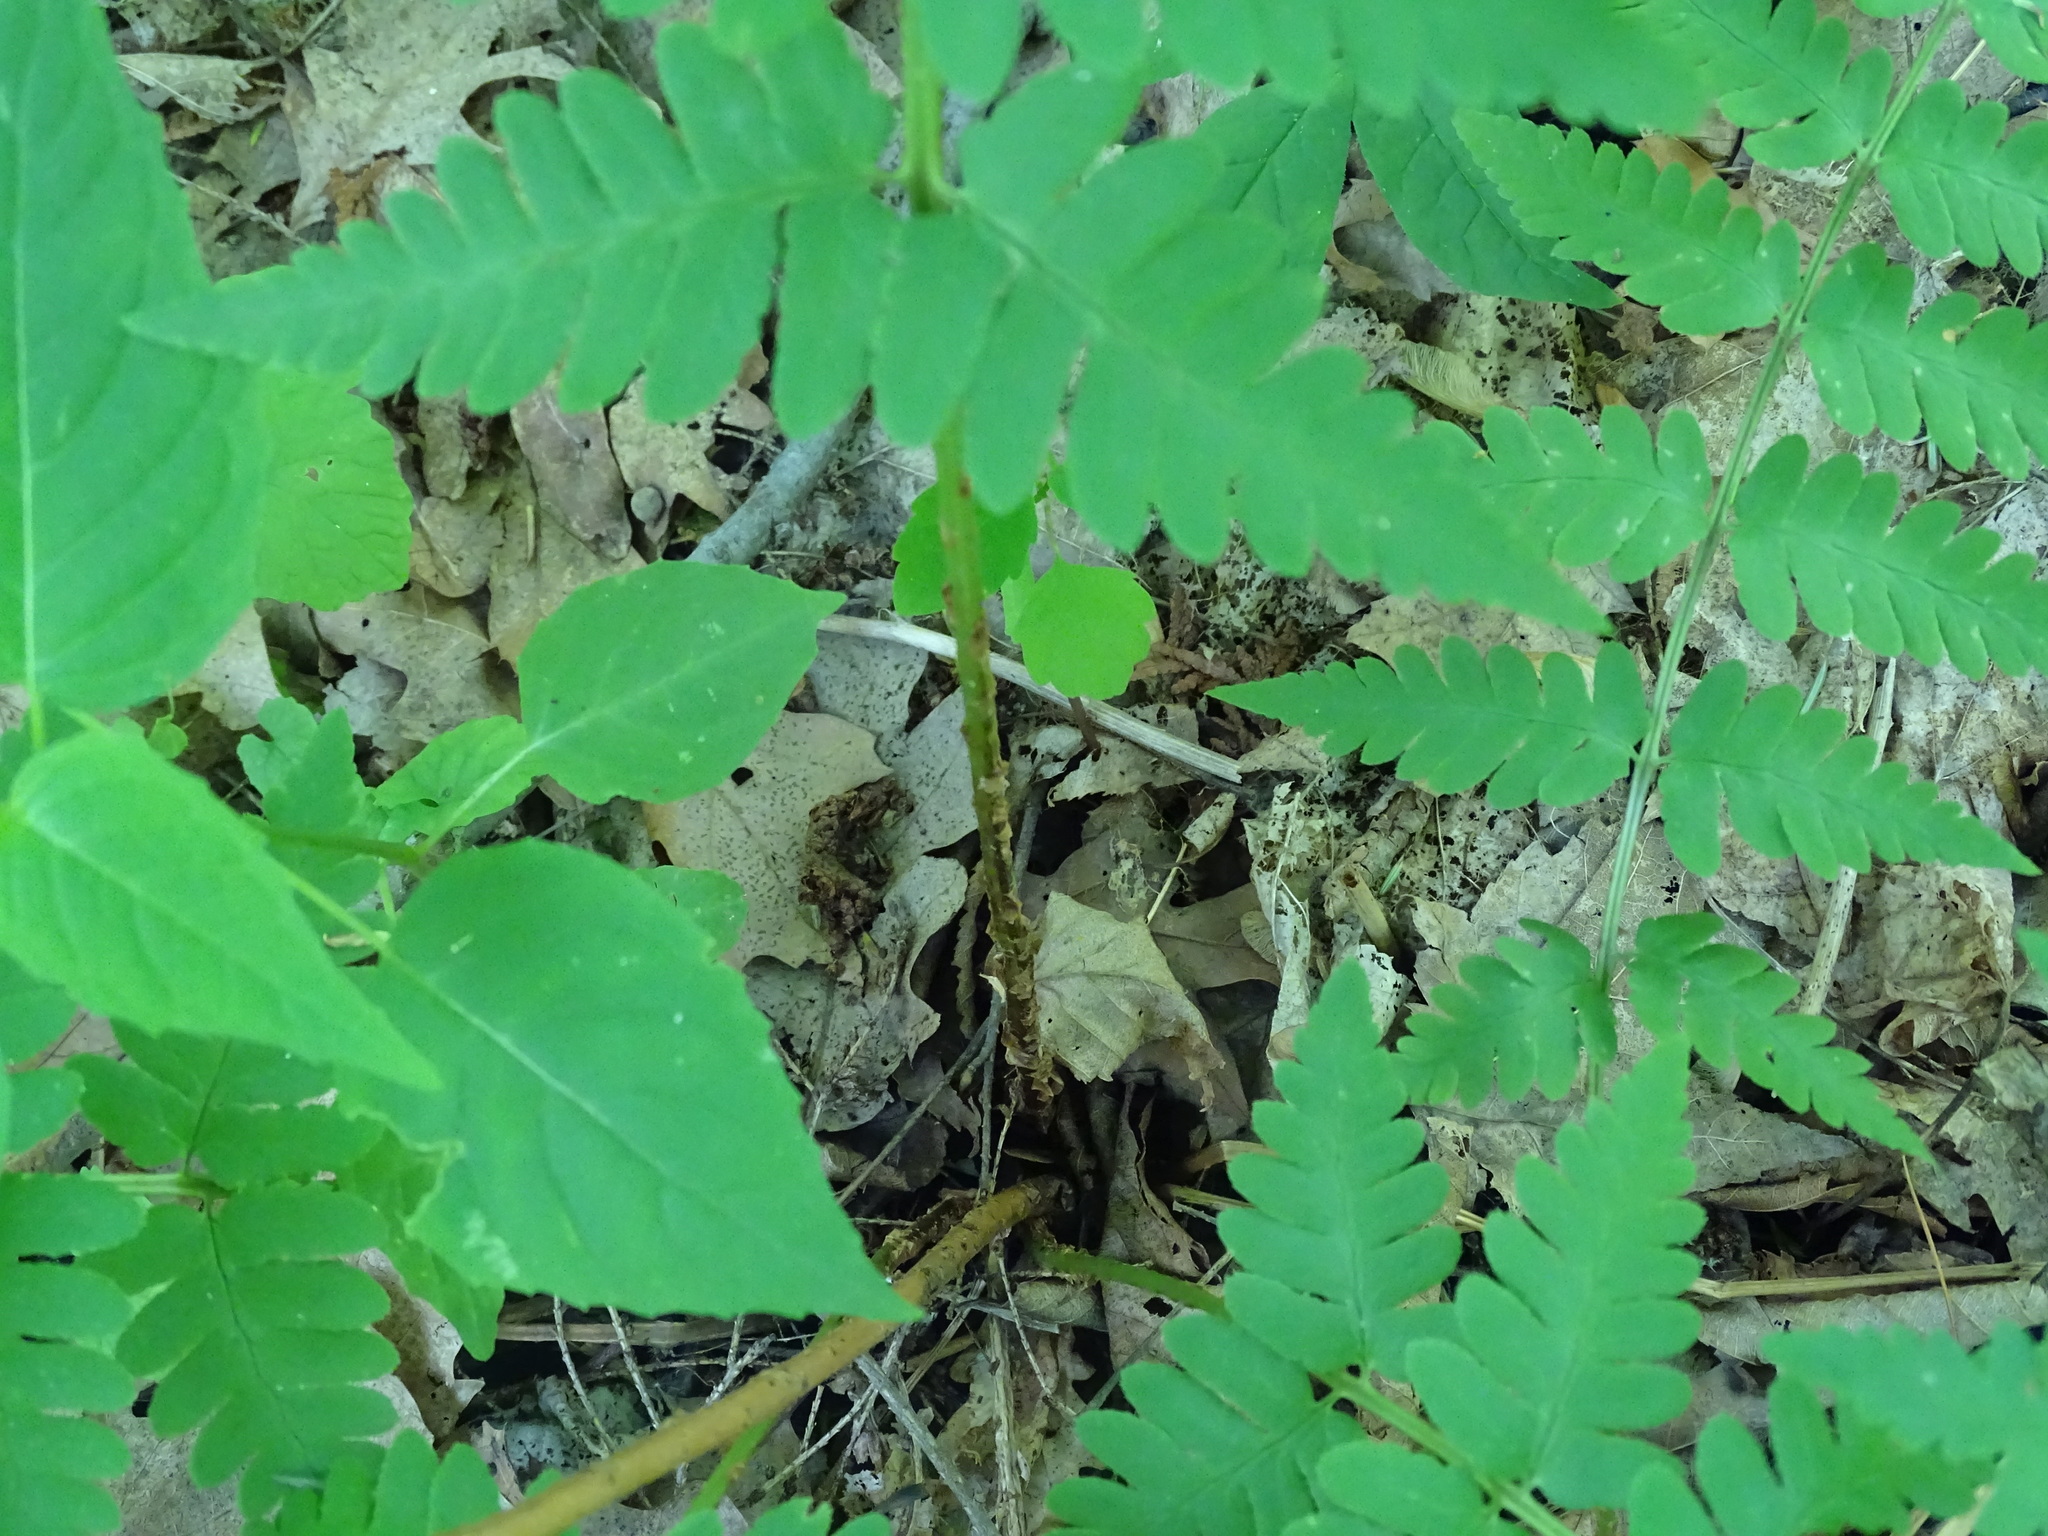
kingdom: Plantae
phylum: Tracheophyta
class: Polypodiopsida
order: Polypodiales
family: Dryopteridaceae
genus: Dryopteris
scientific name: Dryopteris clintoniana
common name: Clinton's wood fern
